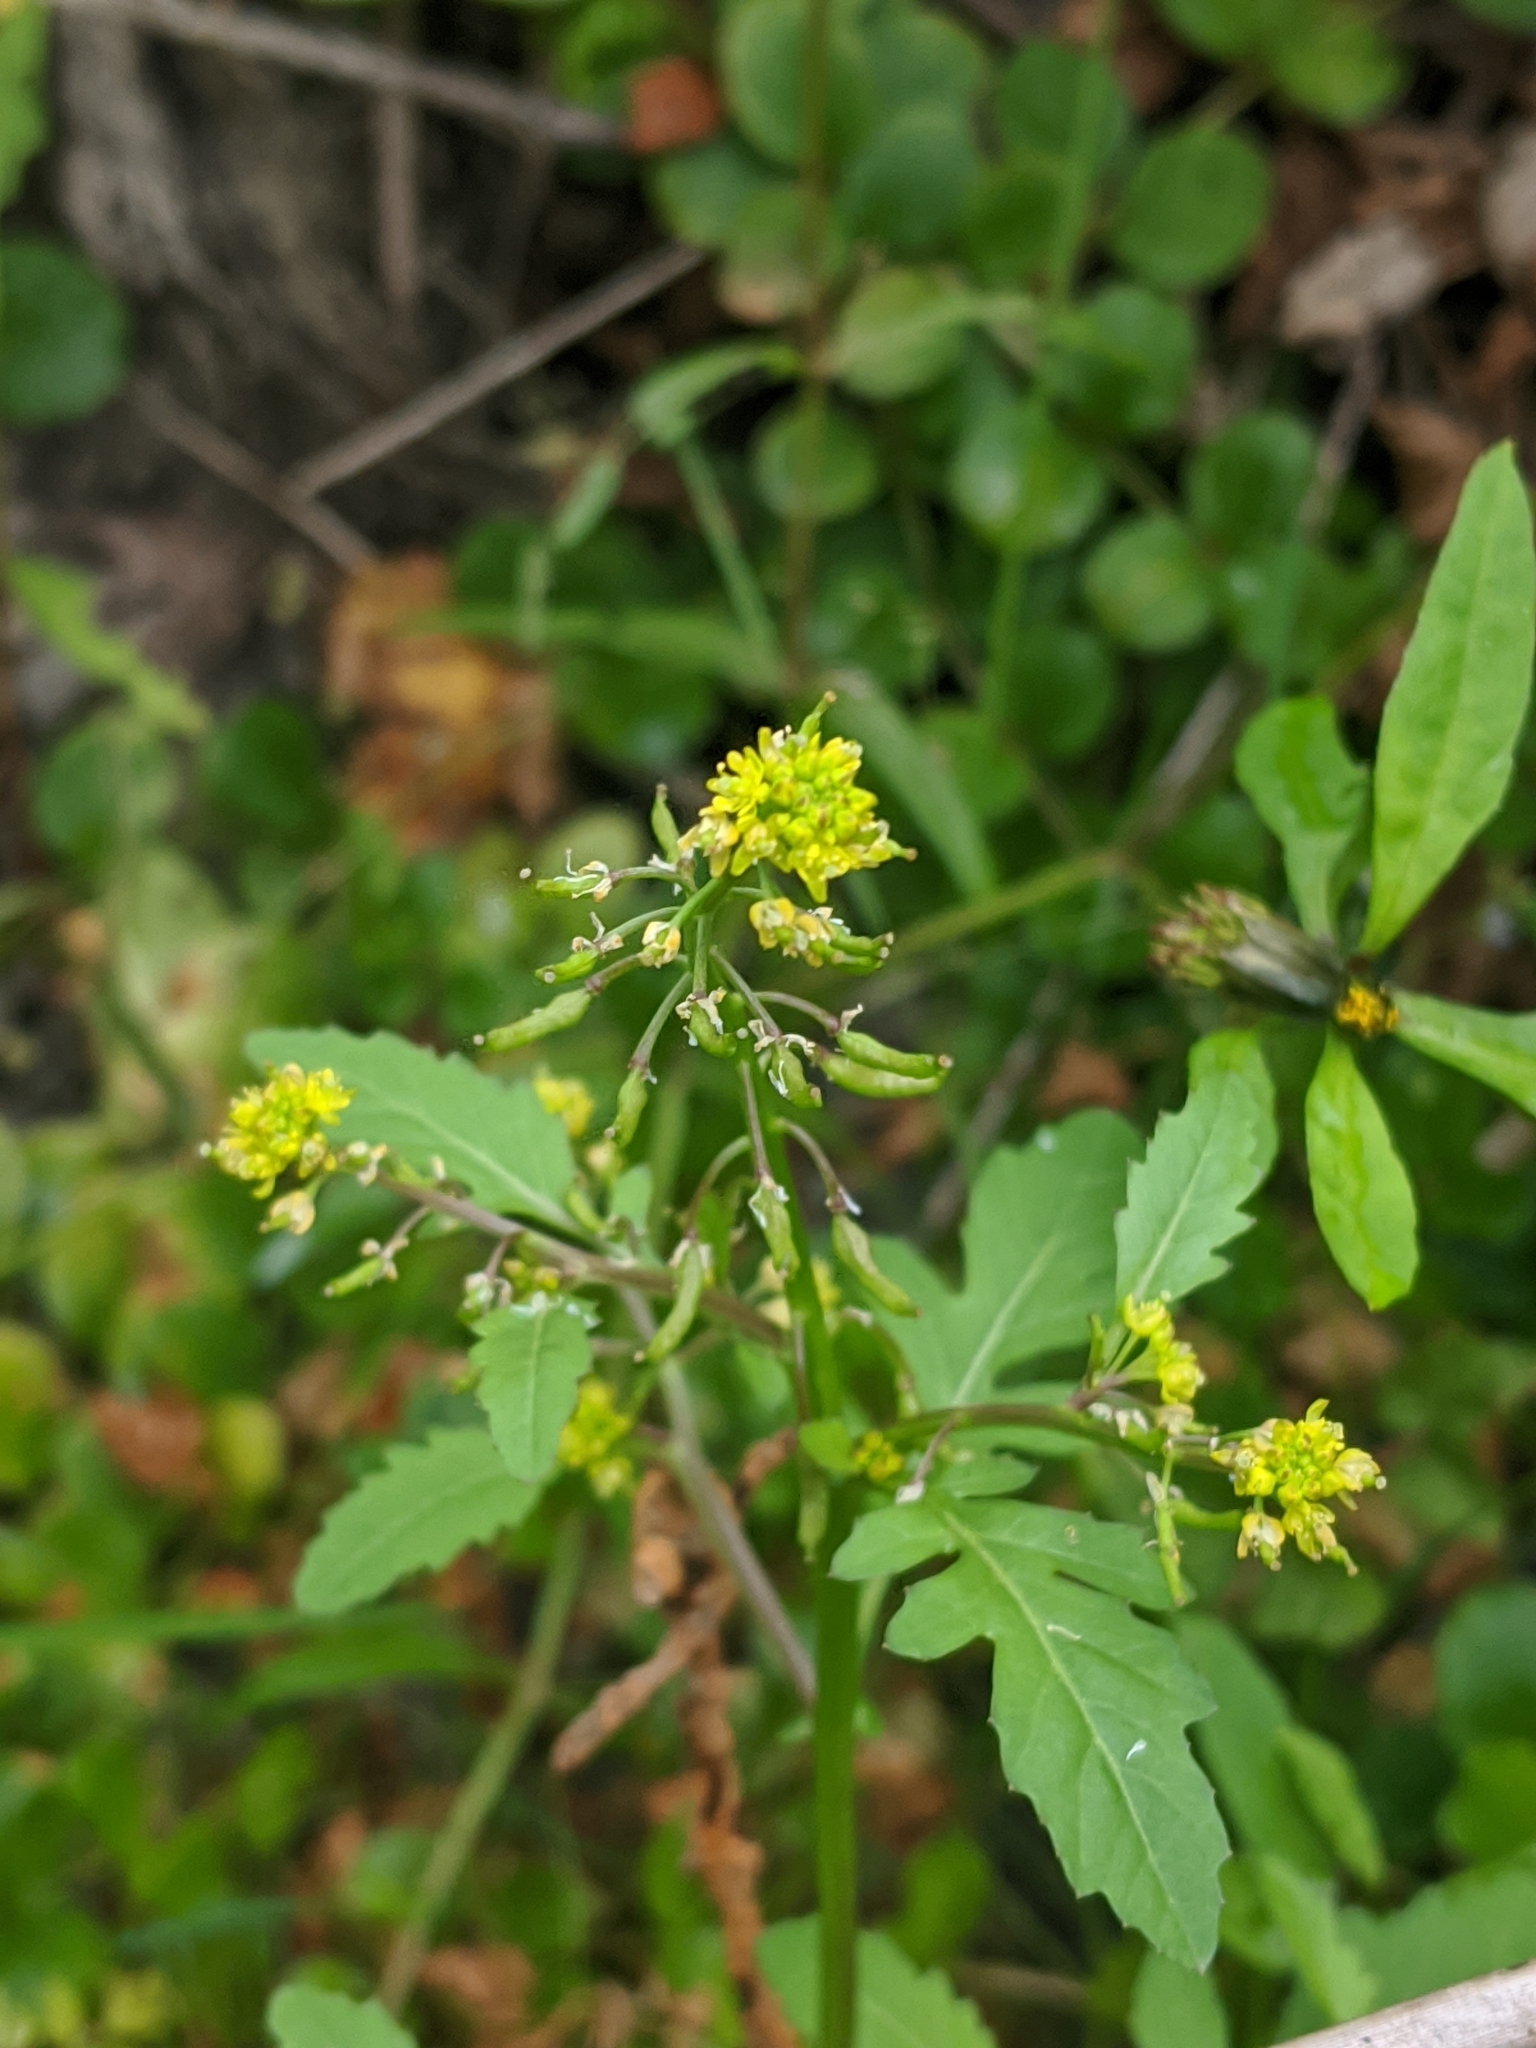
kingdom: Plantae
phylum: Tracheophyta
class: Magnoliopsida
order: Brassicales
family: Brassicaceae
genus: Rorippa
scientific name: Rorippa palustris
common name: Marsh yellow-cress
